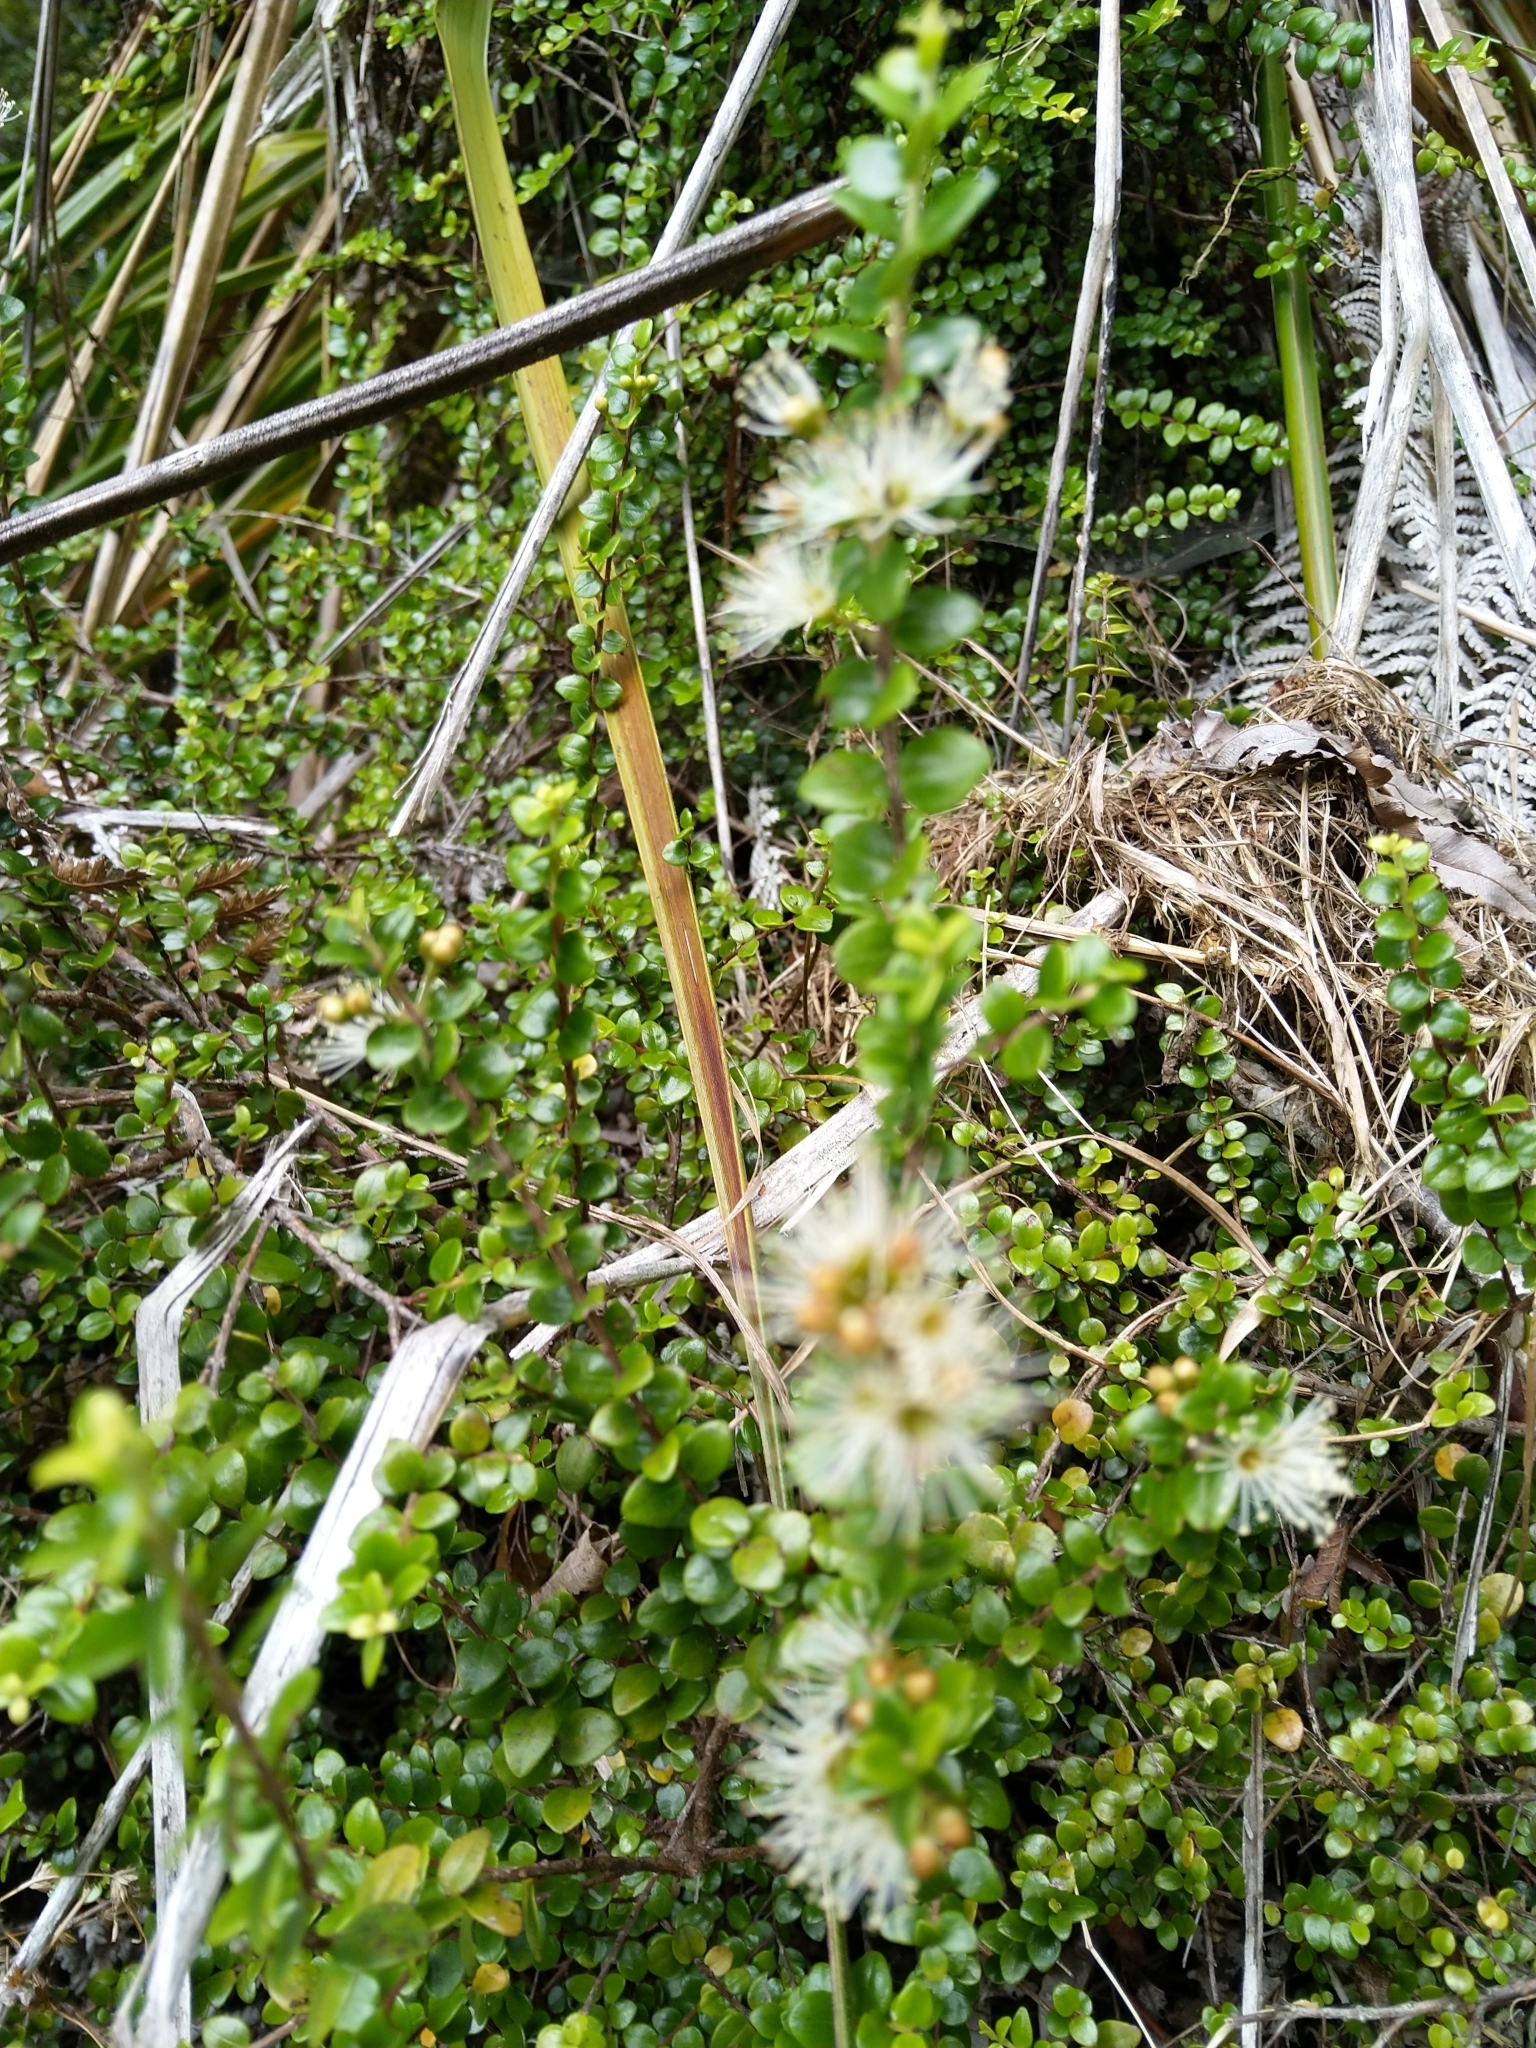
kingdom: Plantae
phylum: Tracheophyta
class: Magnoliopsida
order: Myrtales
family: Myrtaceae
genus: Metrosideros
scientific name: Metrosideros perforata
